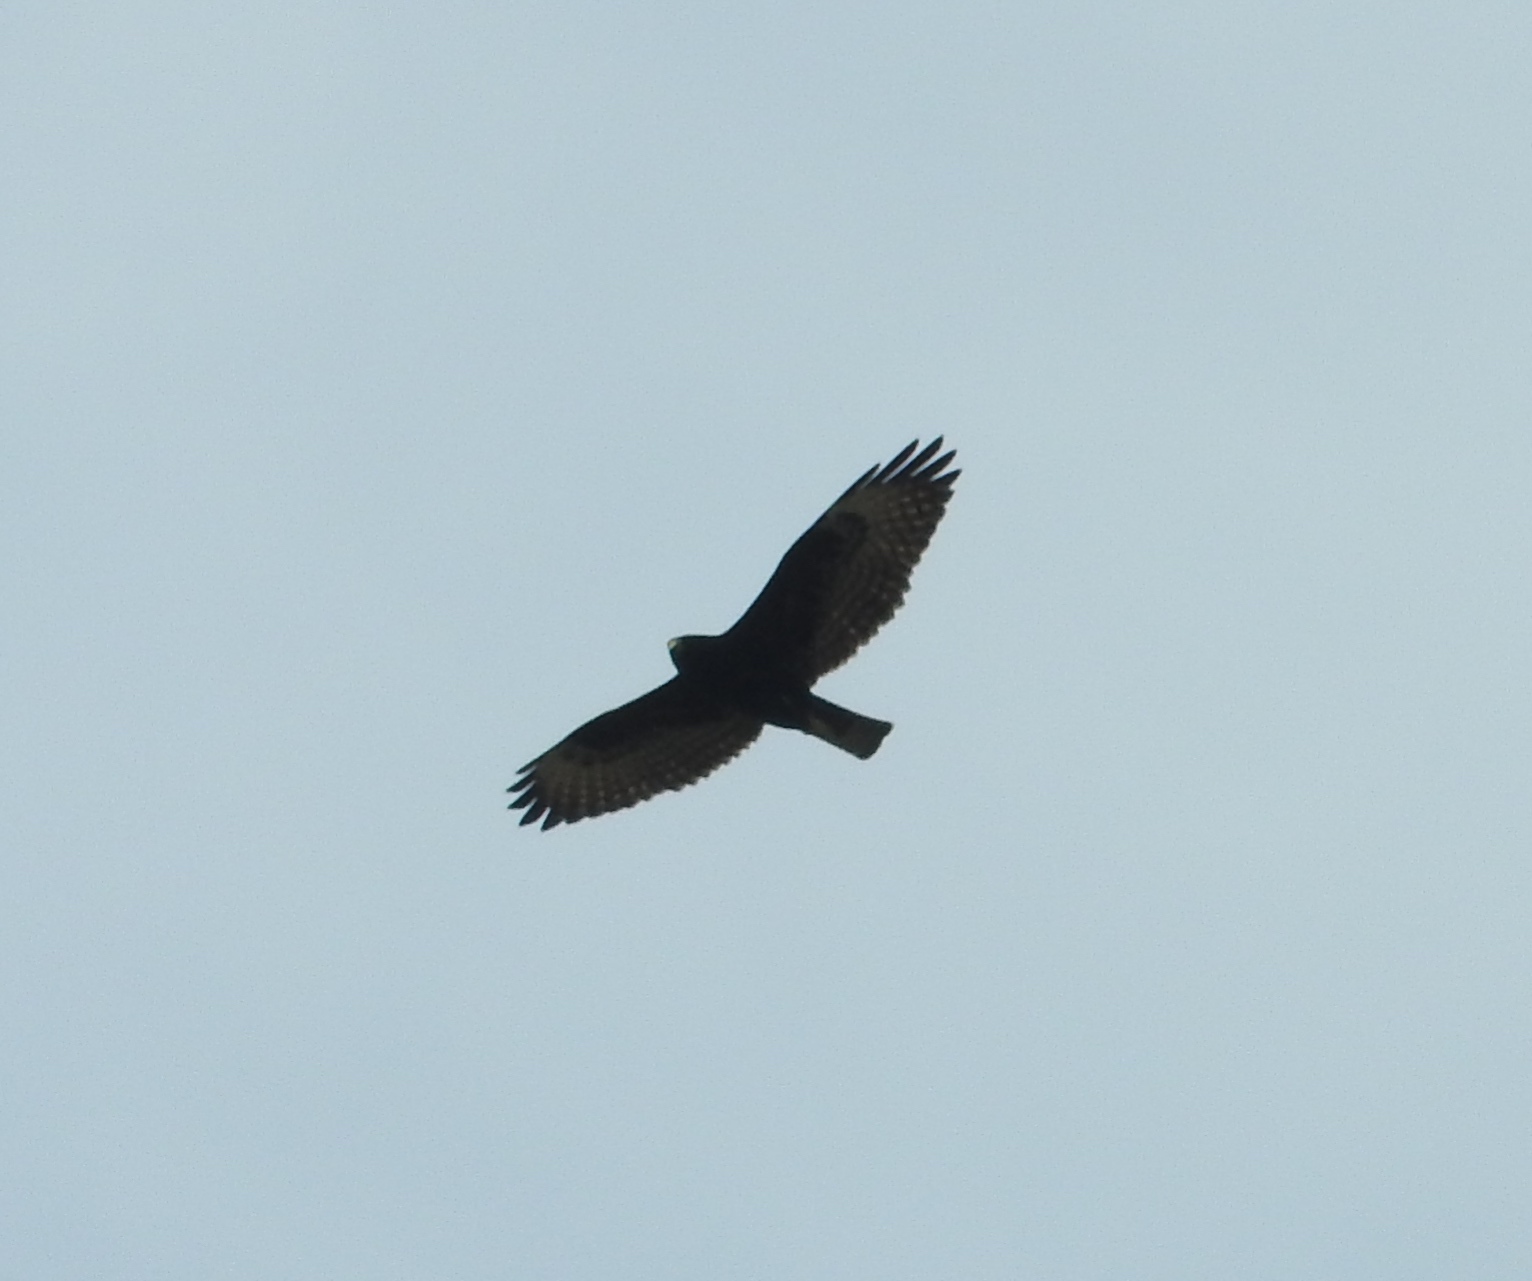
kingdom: Animalia
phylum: Chordata
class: Aves
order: Accipitriformes
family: Accipitridae
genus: Buteo
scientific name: Buteo albonotatus
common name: Zone-tailed hawk
